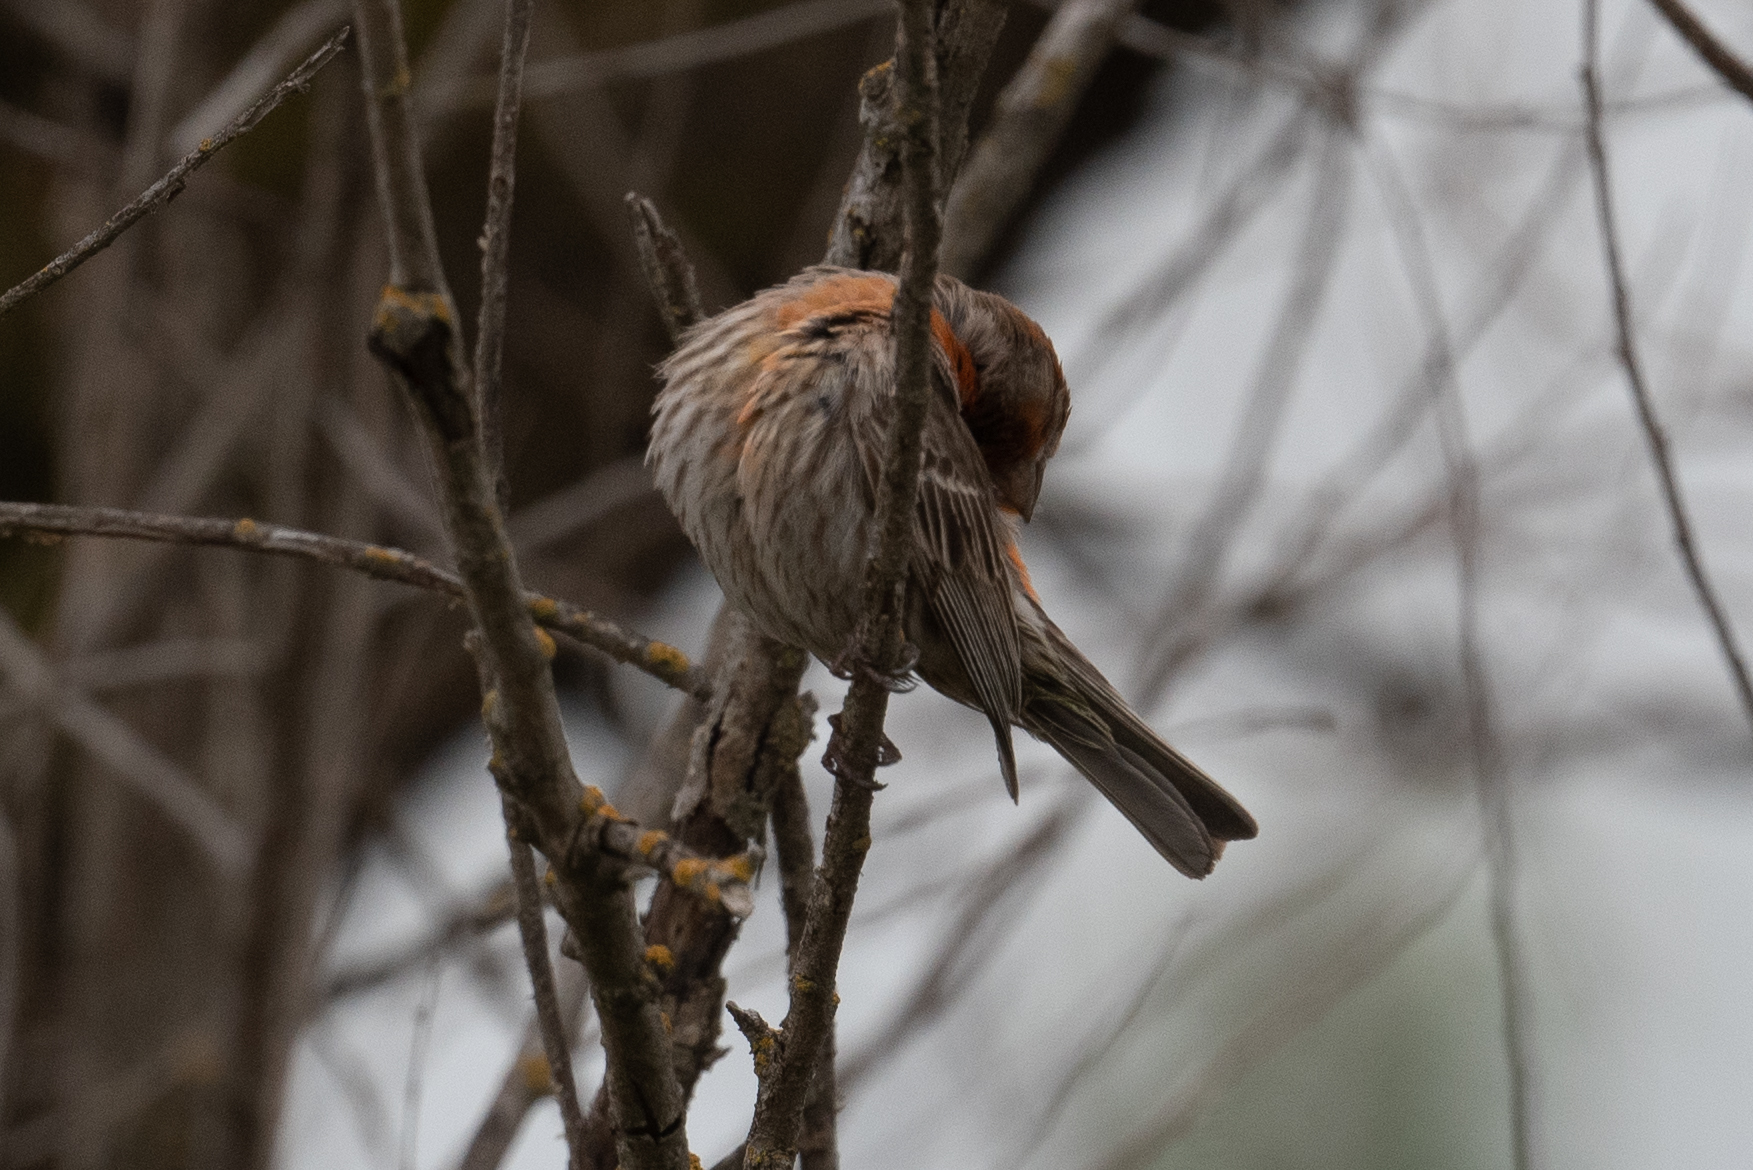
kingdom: Animalia
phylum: Chordata
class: Aves
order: Passeriformes
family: Fringillidae
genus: Haemorhous
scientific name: Haemorhous mexicanus
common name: House finch
